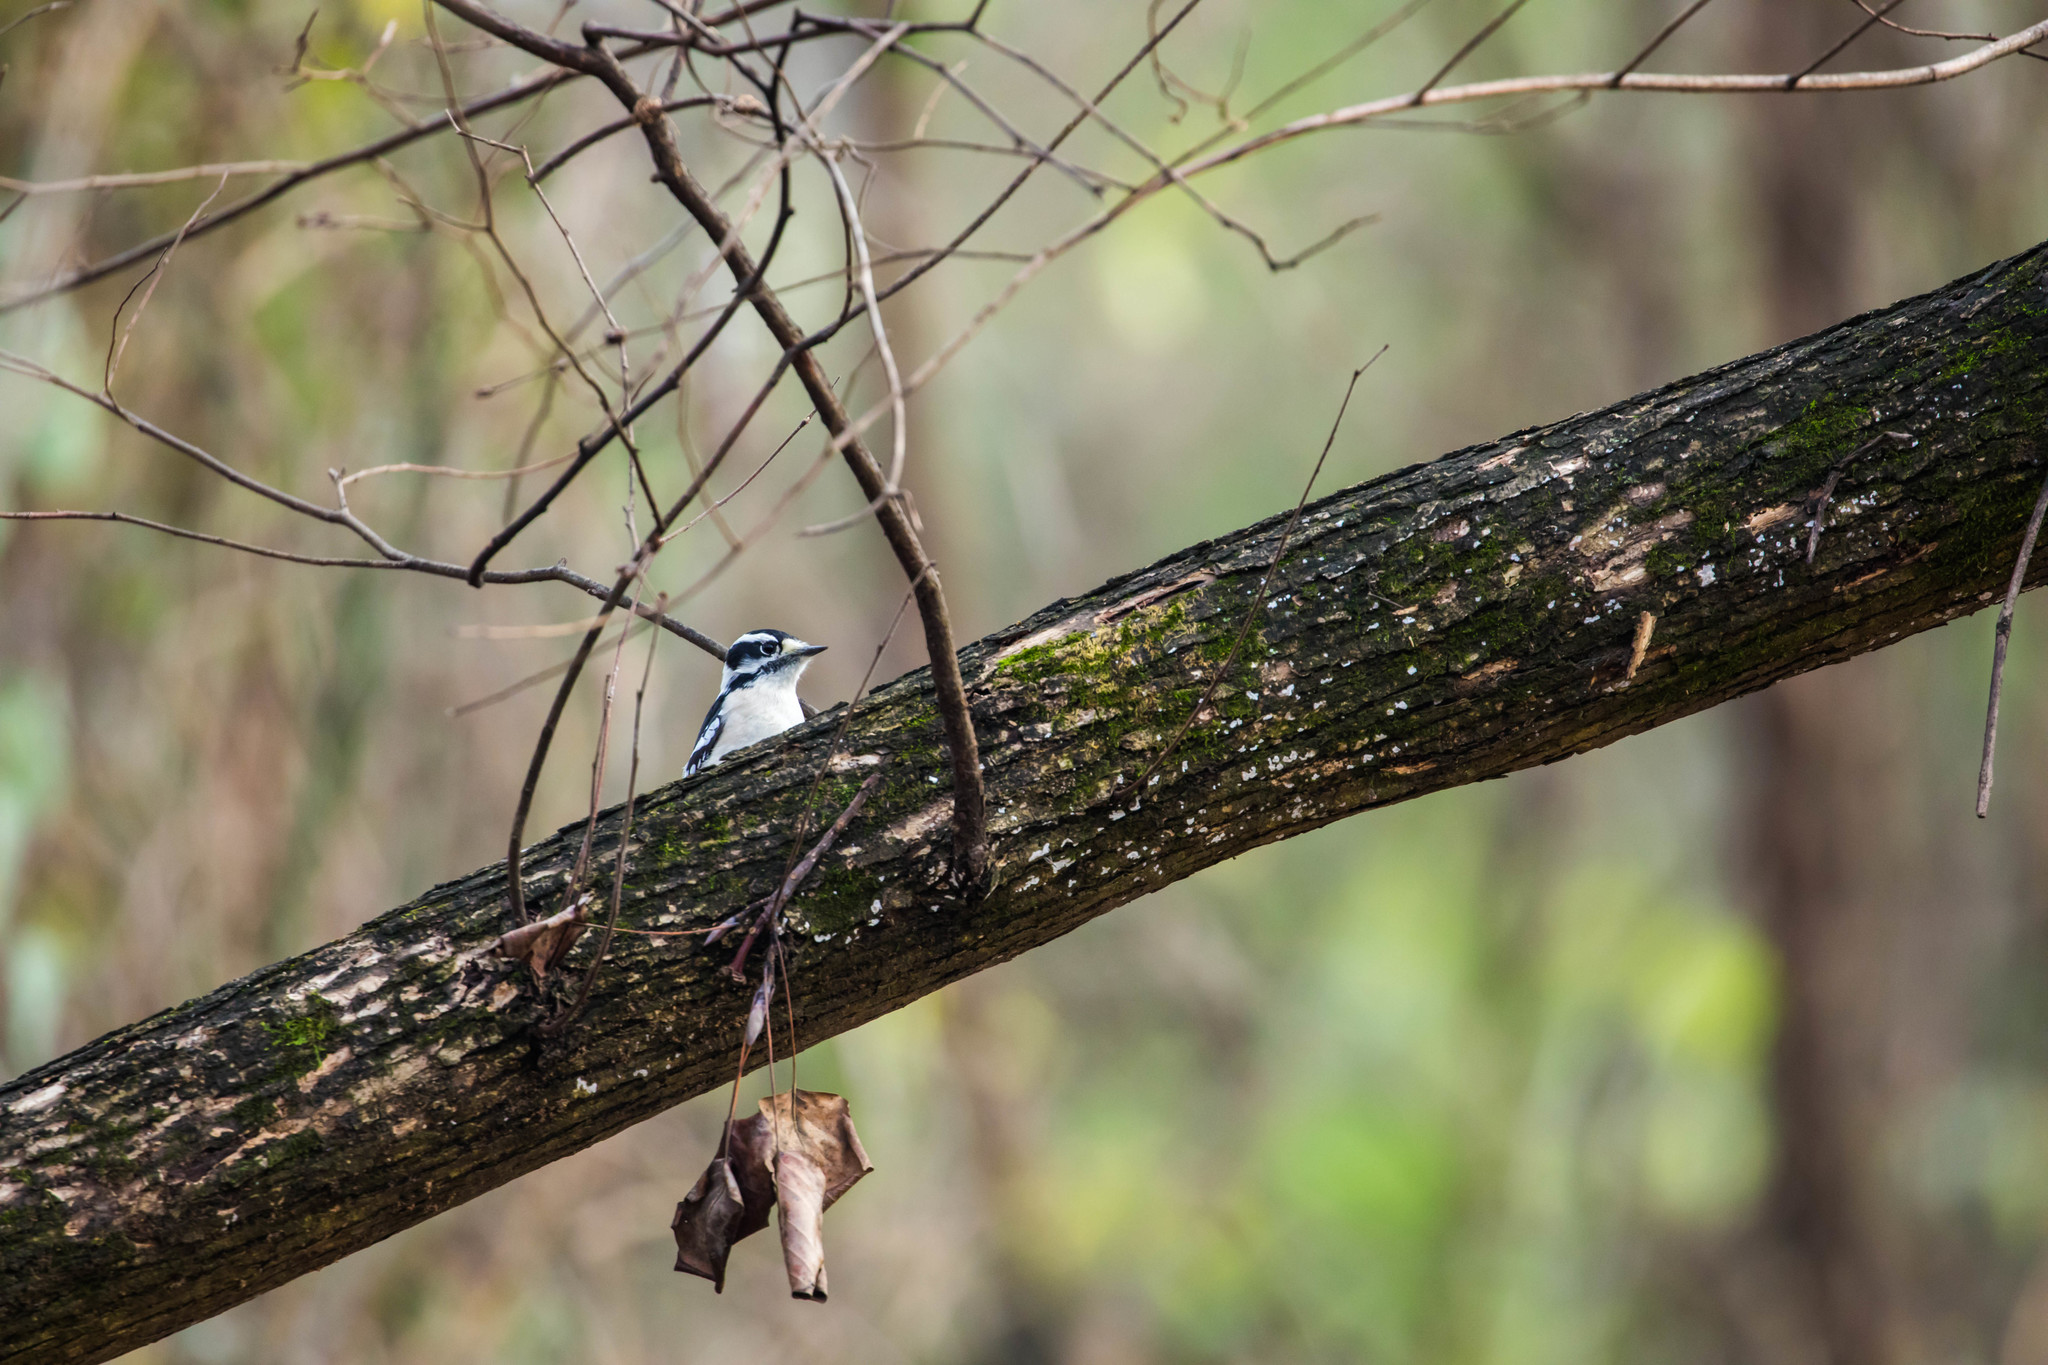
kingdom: Animalia
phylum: Chordata
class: Aves
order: Piciformes
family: Picidae
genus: Dryobates
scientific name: Dryobates pubescens
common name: Downy woodpecker
